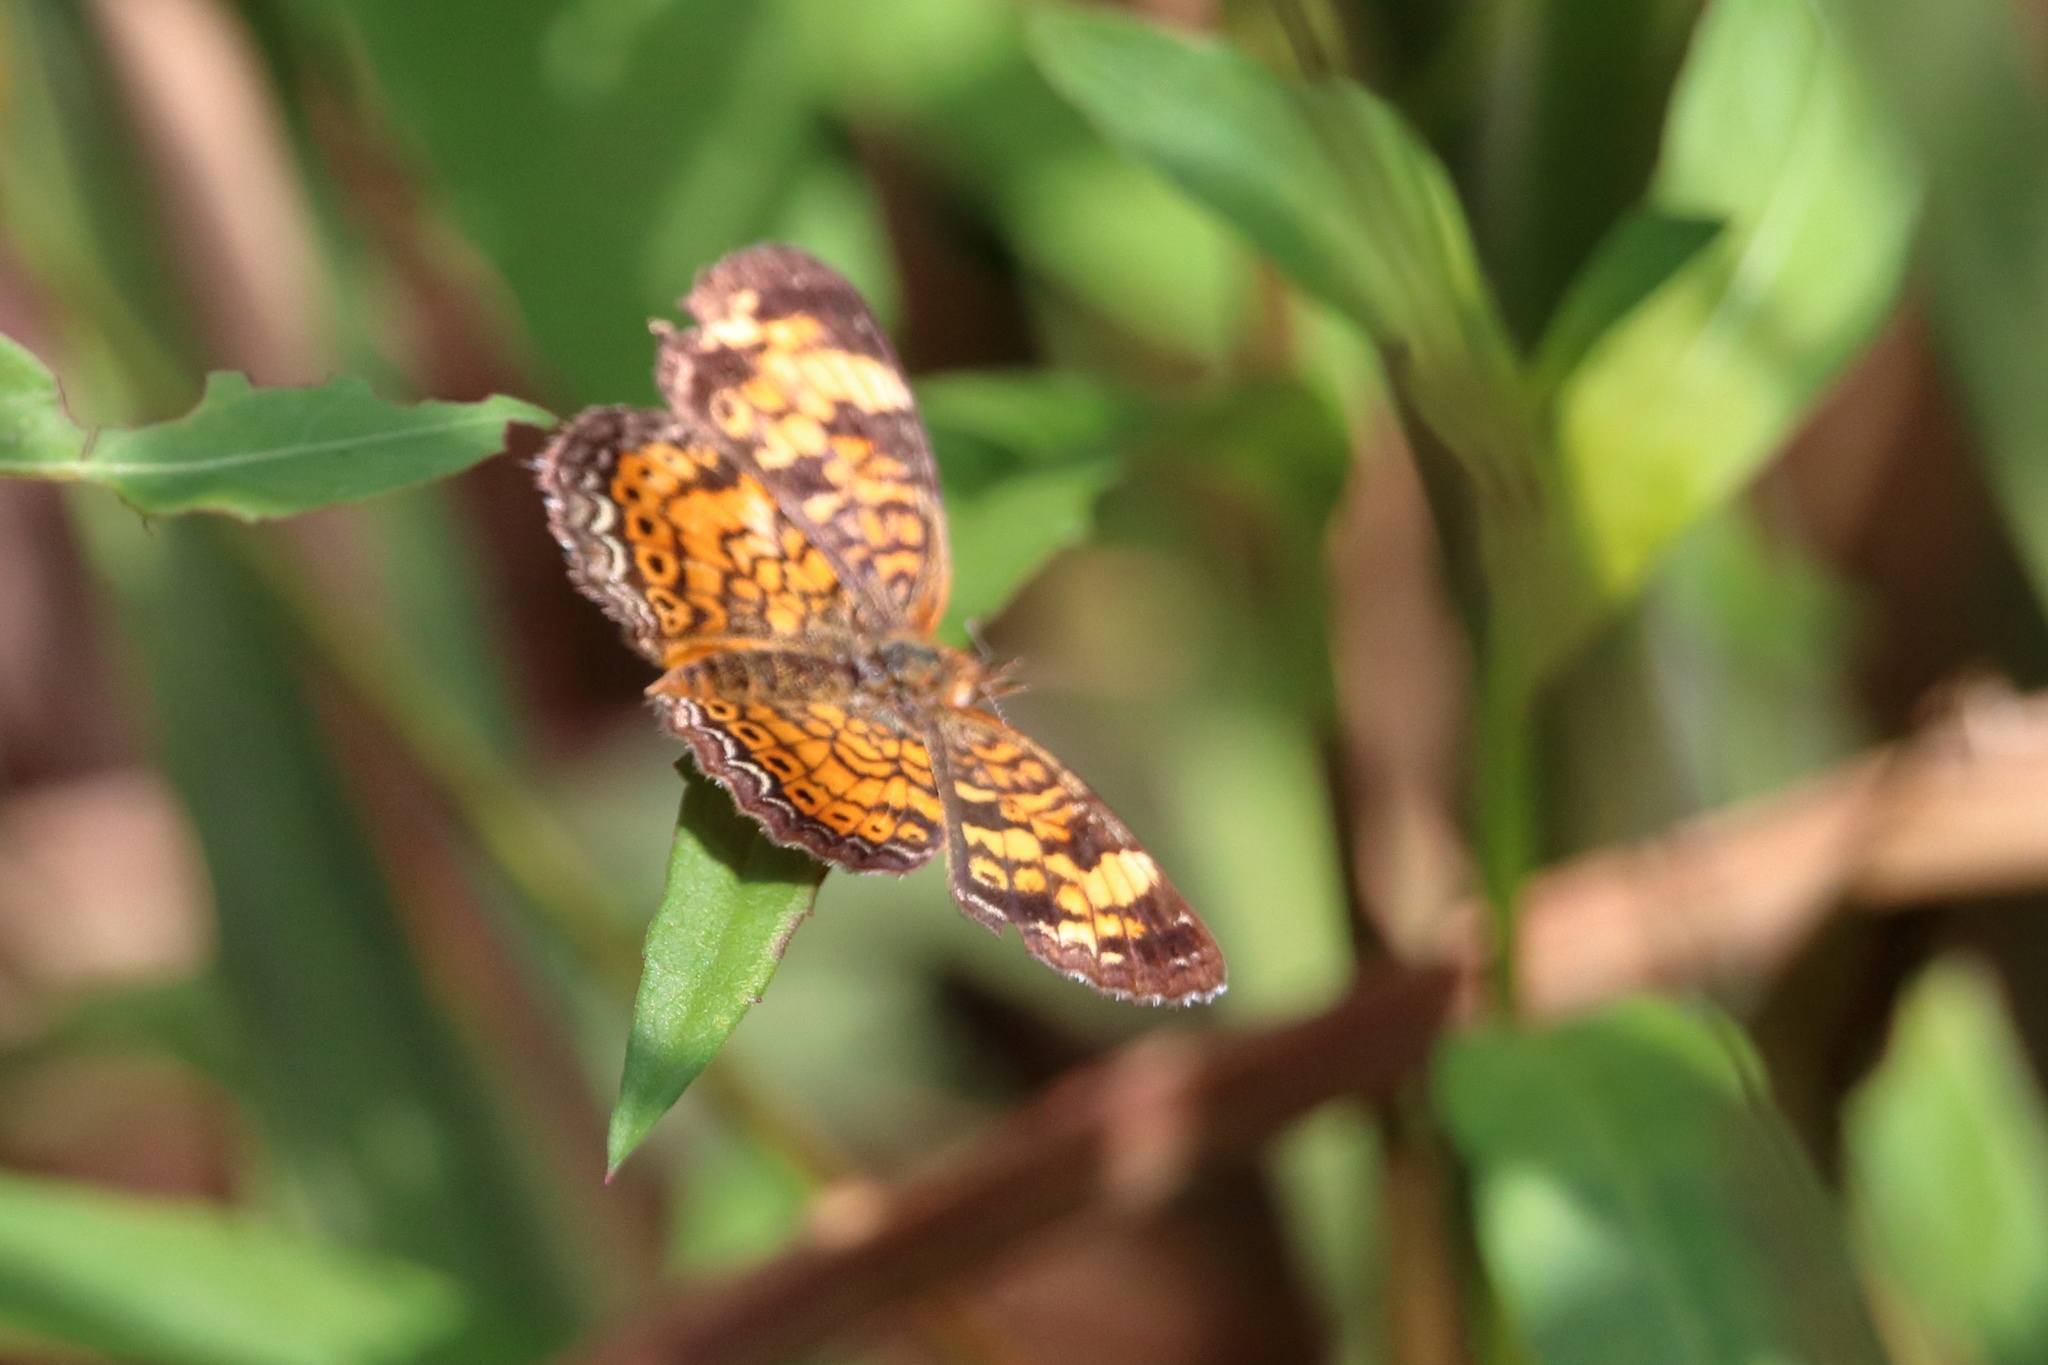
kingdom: Animalia
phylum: Arthropoda
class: Insecta
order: Lepidoptera
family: Nymphalidae
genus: Phyciodes
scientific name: Phyciodes tharos
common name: Pearl crescent
